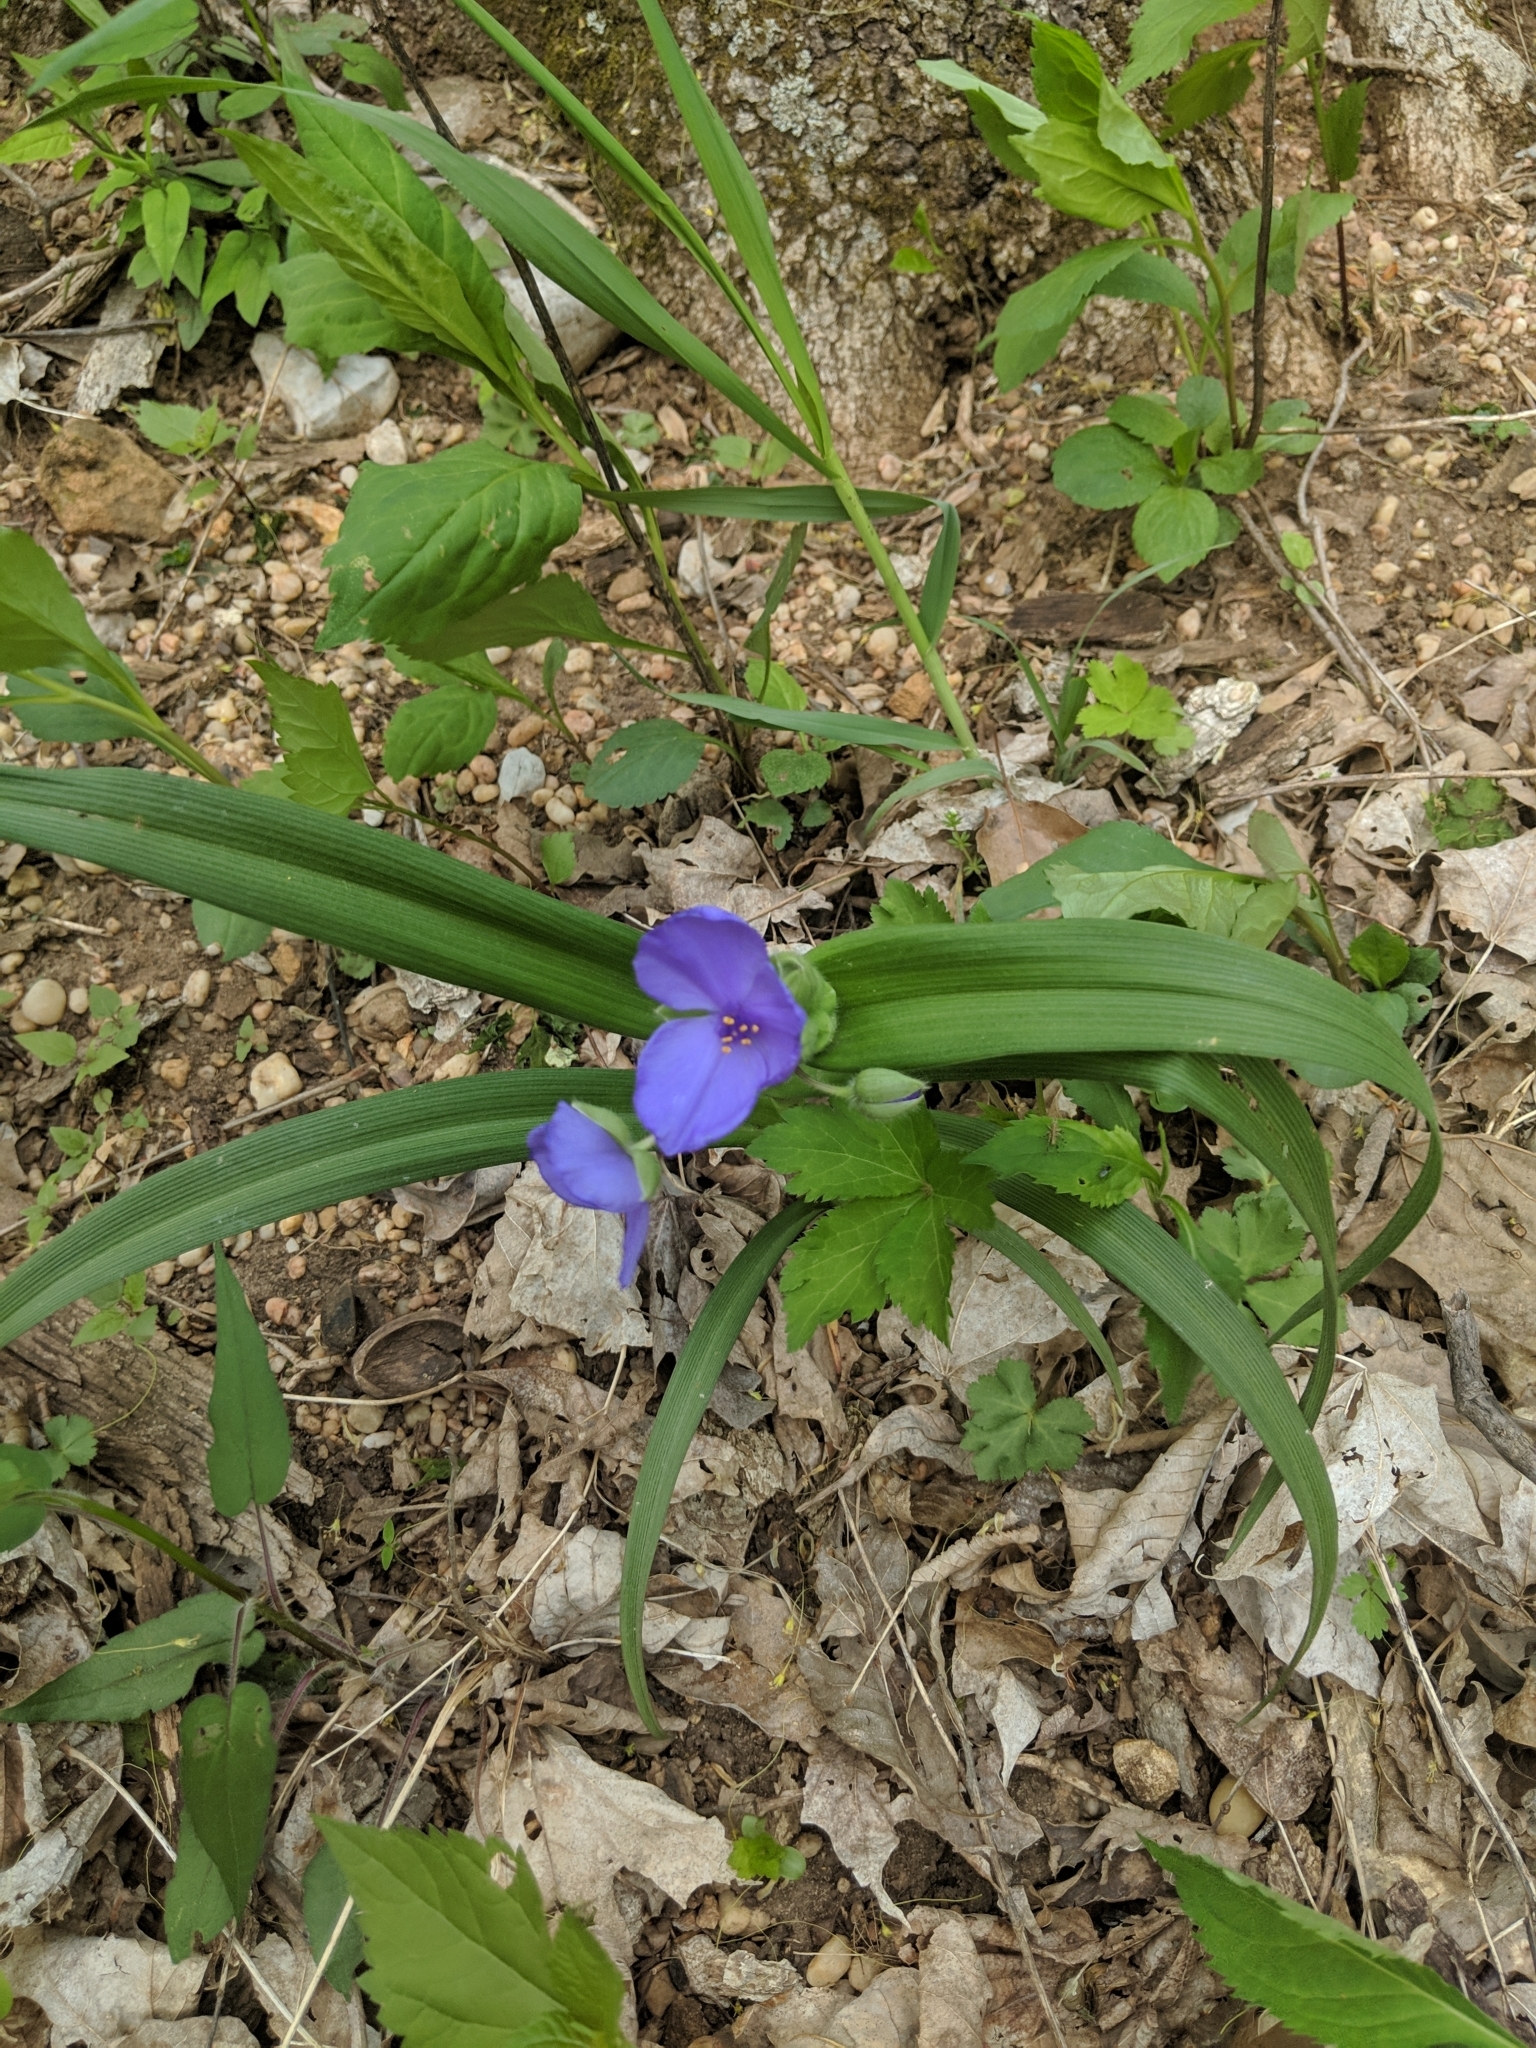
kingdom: Plantae
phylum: Tracheophyta
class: Liliopsida
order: Commelinales
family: Commelinaceae
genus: Tradescantia
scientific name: Tradescantia virginiana
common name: Spiderwort
